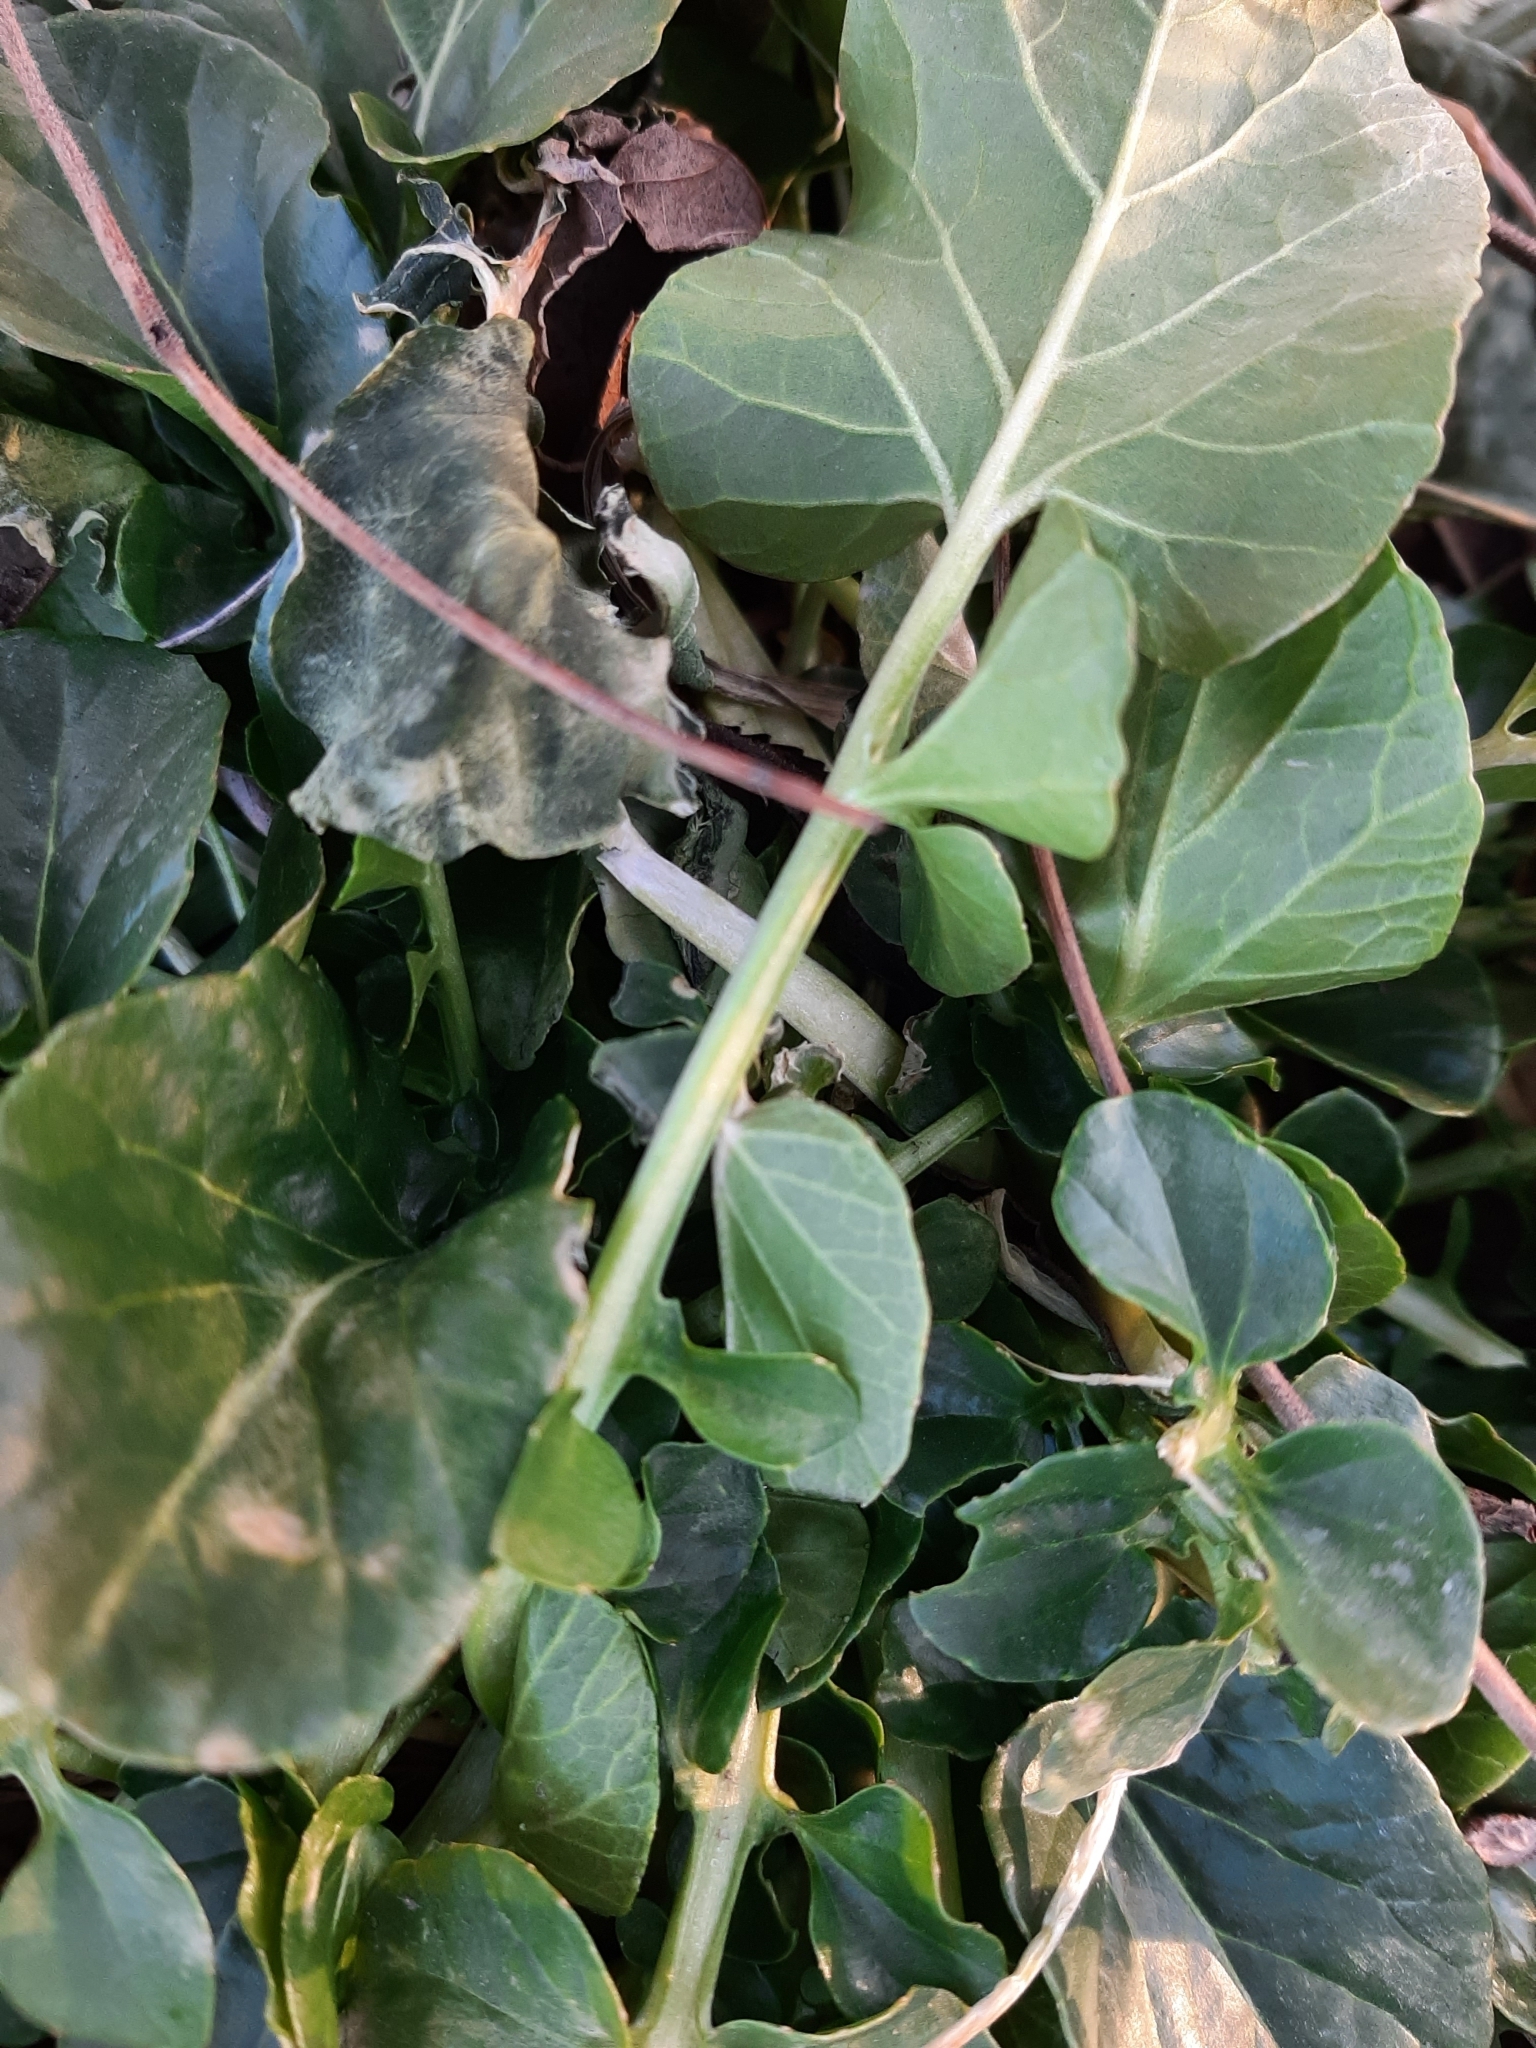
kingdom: Plantae
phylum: Tracheophyta
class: Magnoliopsida
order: Brassicales
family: Brassicaceae
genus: Barbarea
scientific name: Barbarea vulgaris
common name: Cressy-greens
